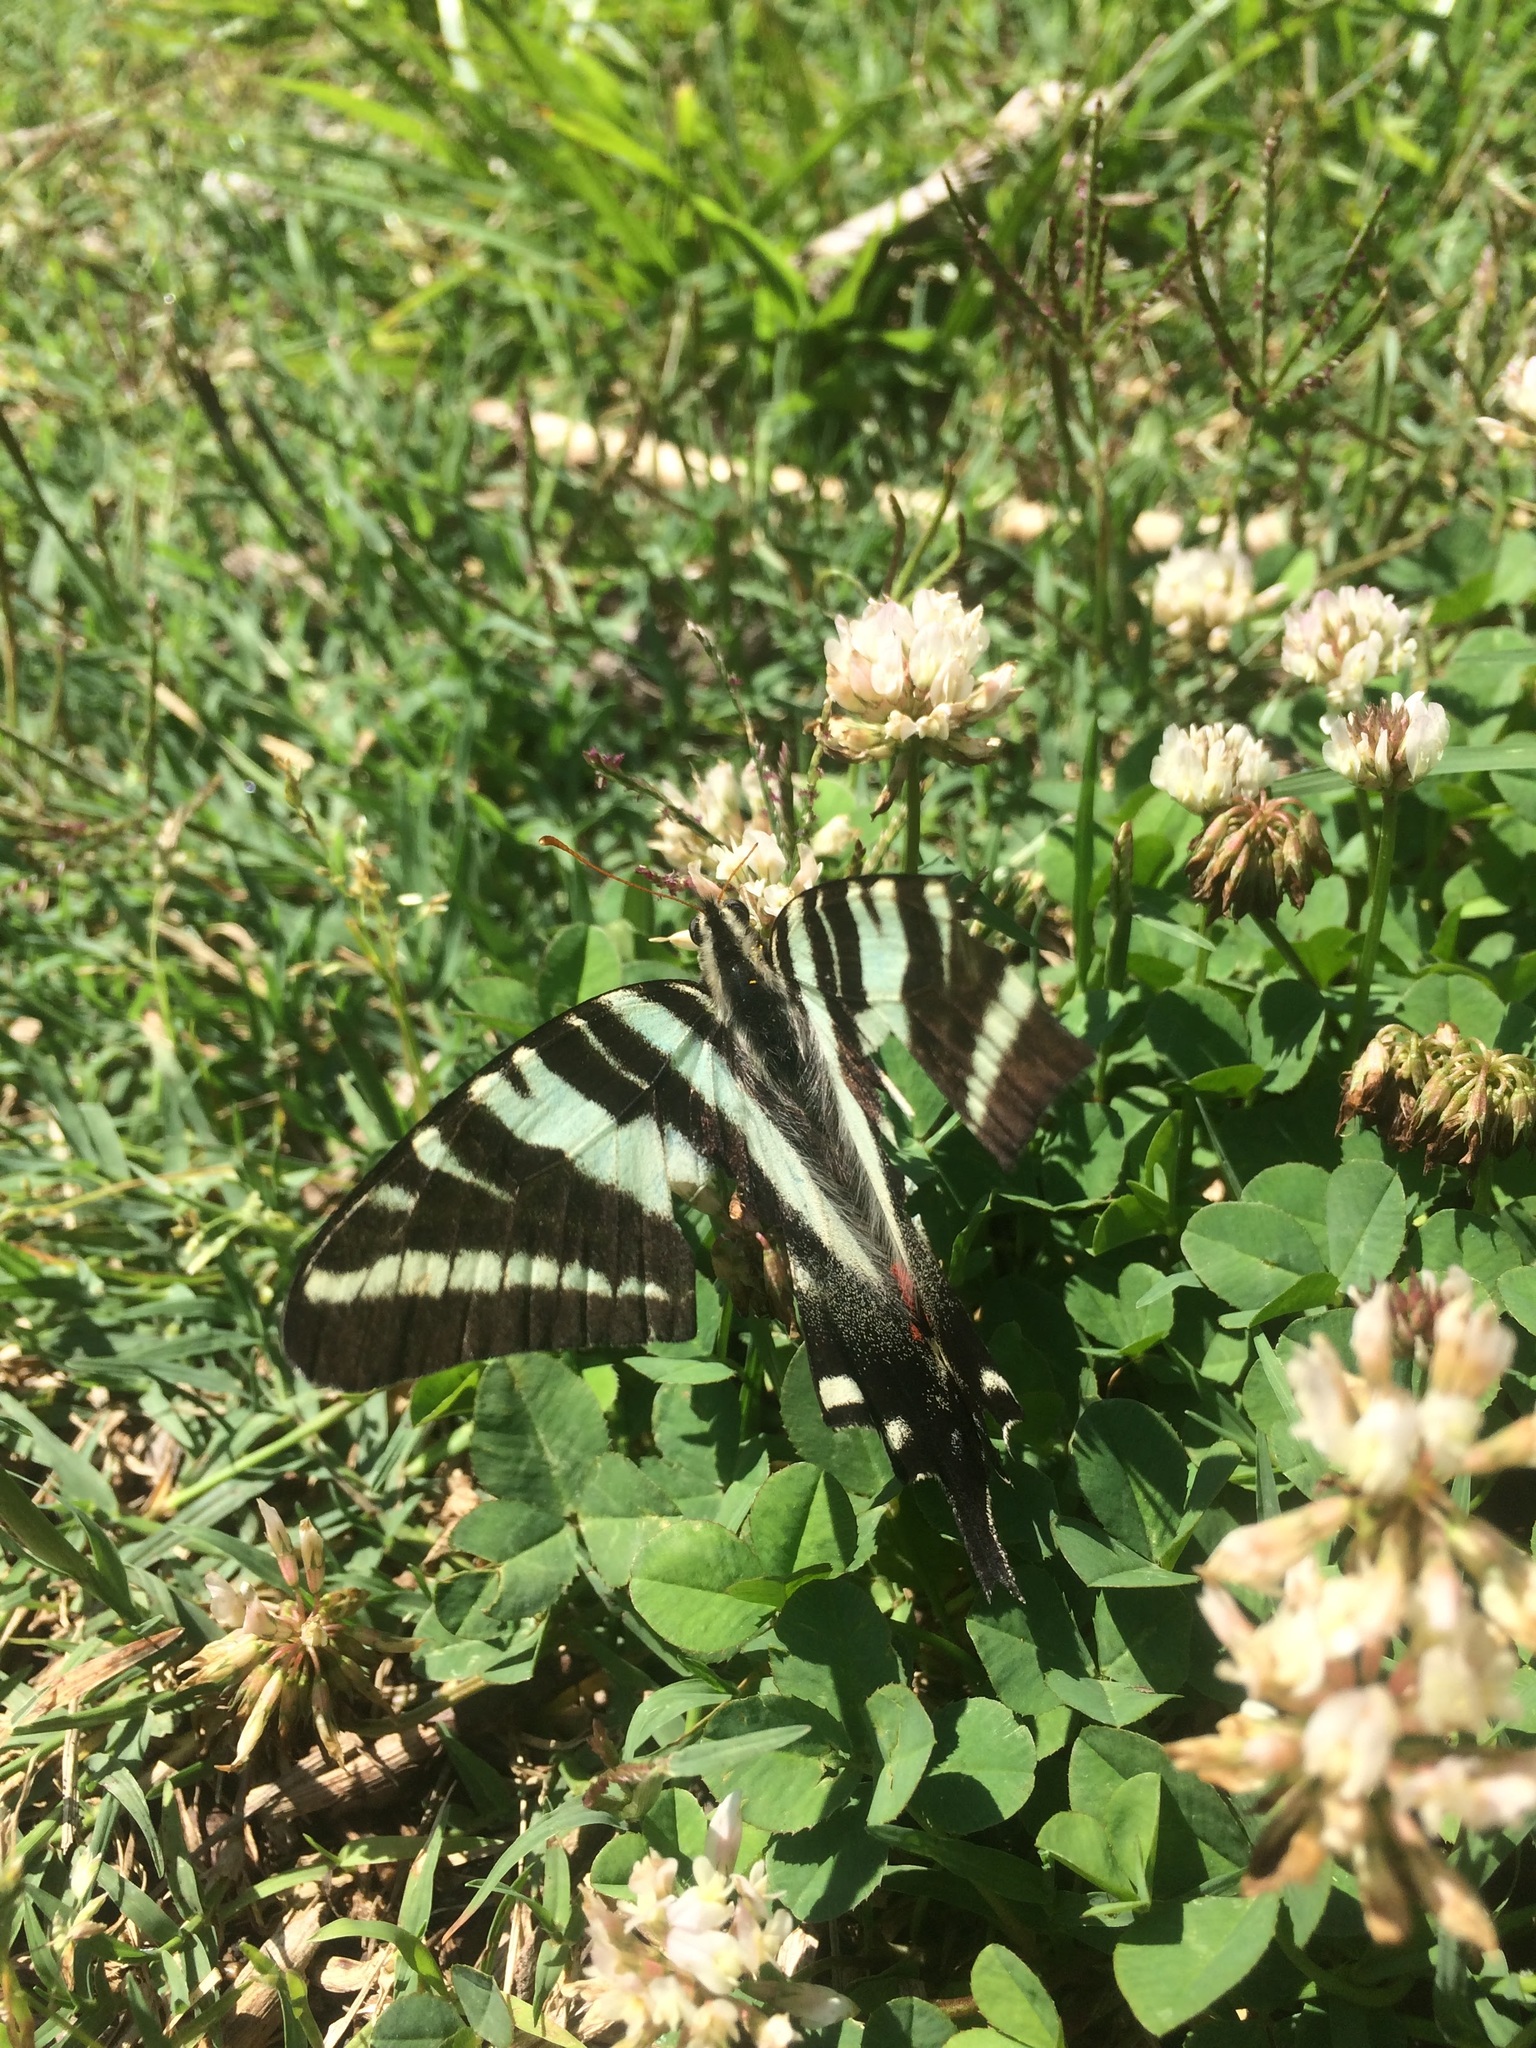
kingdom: Animalia
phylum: Arthropoda
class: Insecta
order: Lepidoptera
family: Papilionidae
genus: Protographium
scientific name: Protographium marcellus
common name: Zebra swallowtail
